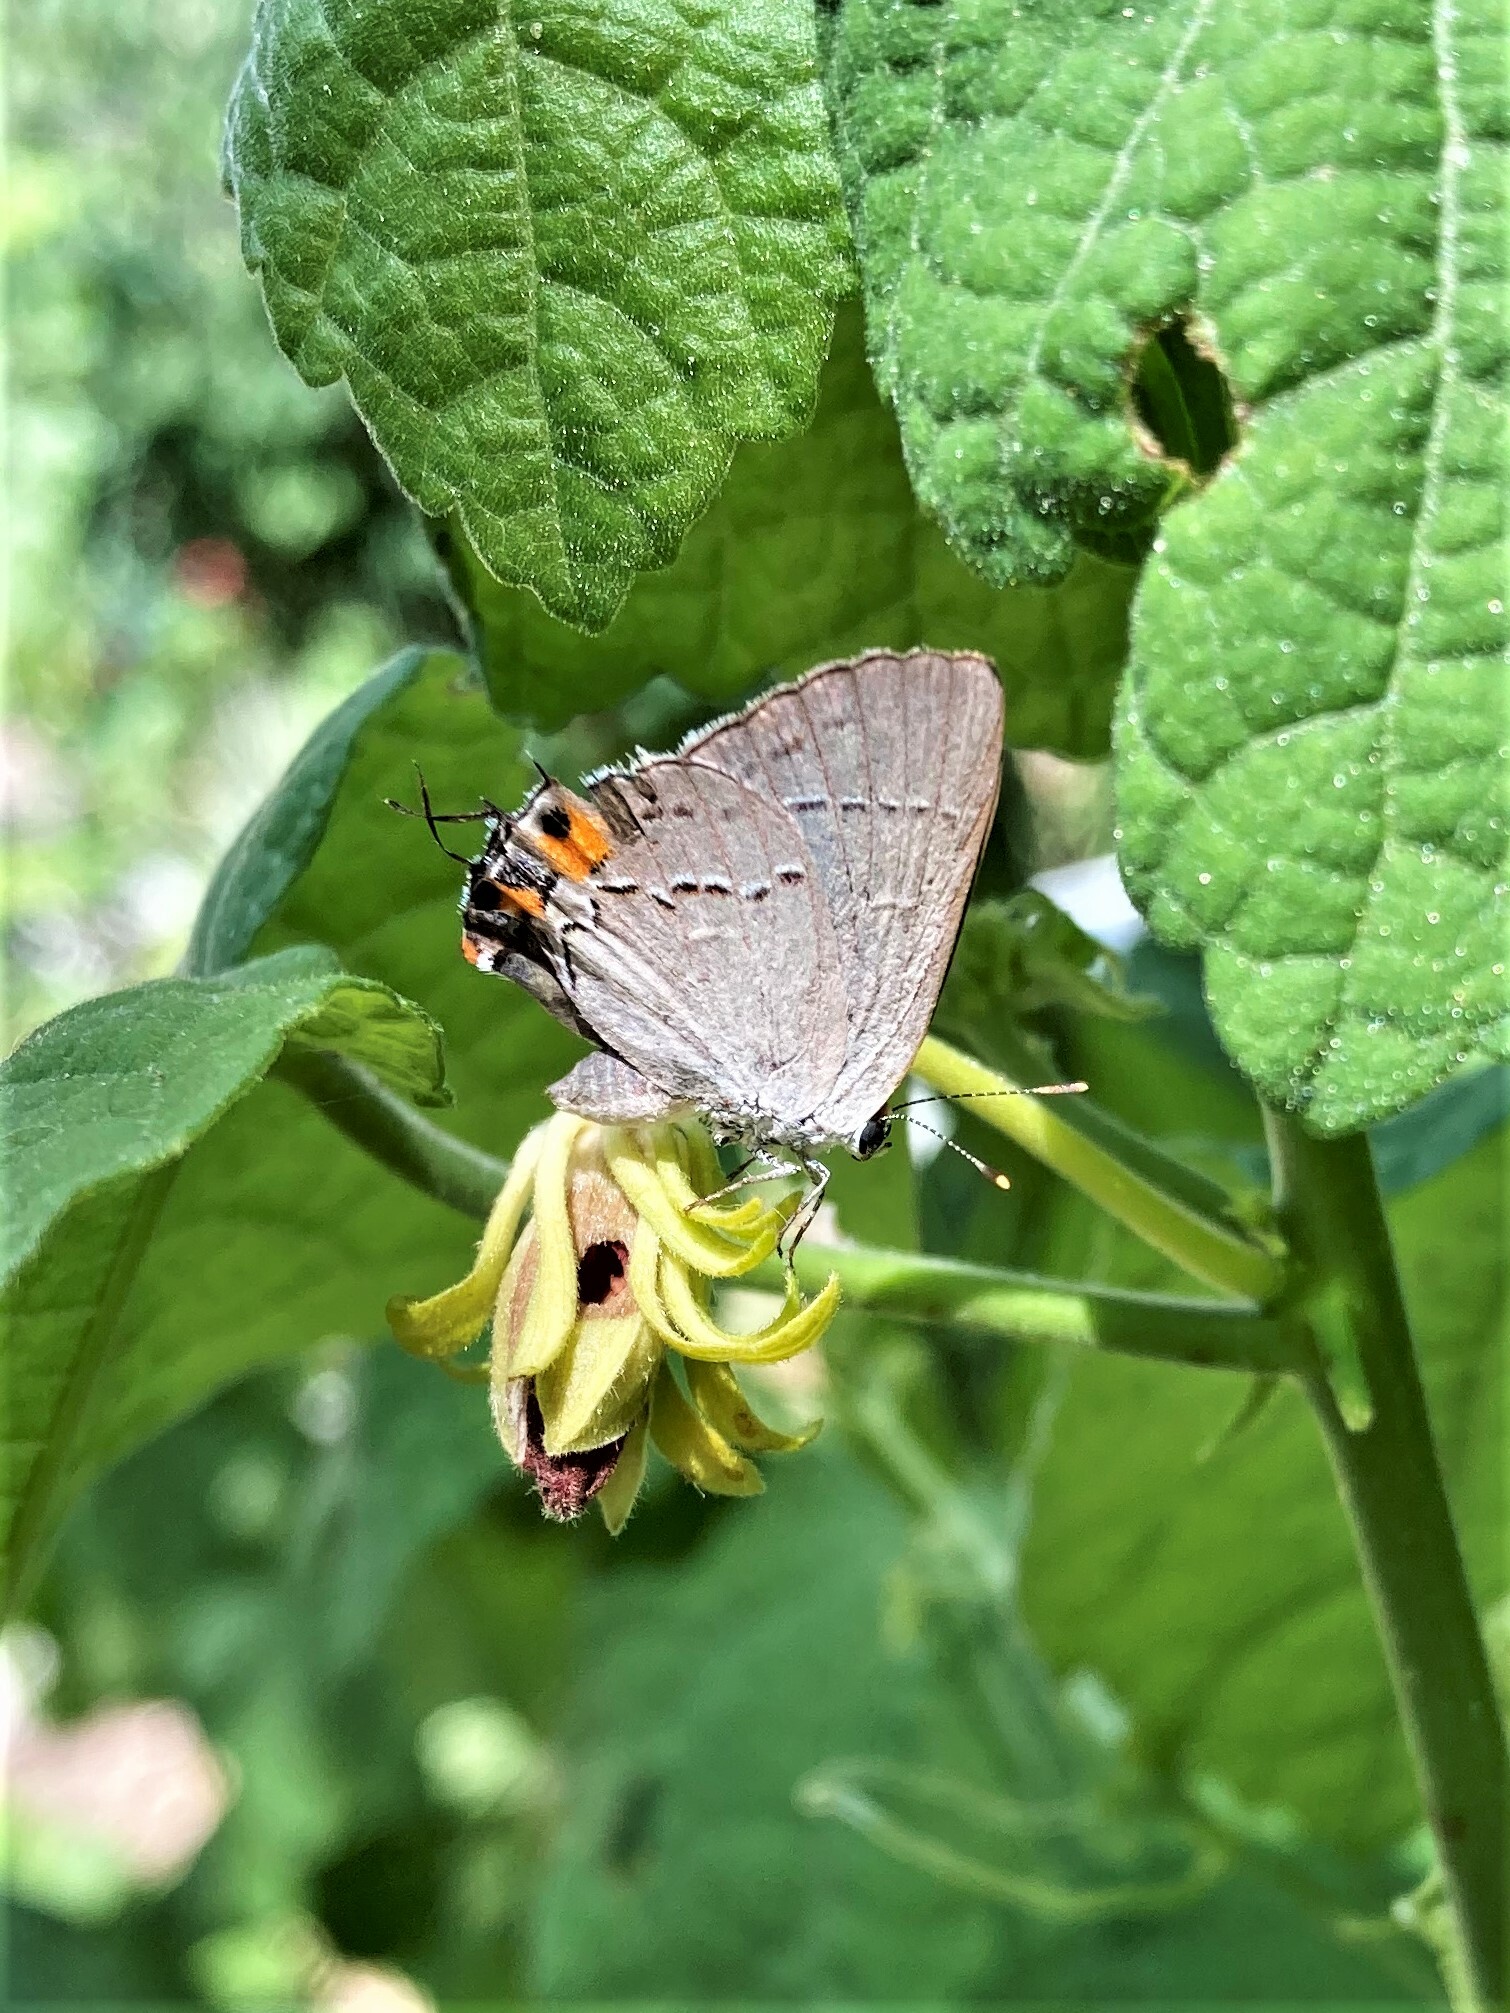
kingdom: Animalia
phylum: Arthropoda
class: Insecta
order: Lepidoptera
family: Lycaenidae
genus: Strymon
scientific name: Strymon melinus
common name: Gray hairstreak
